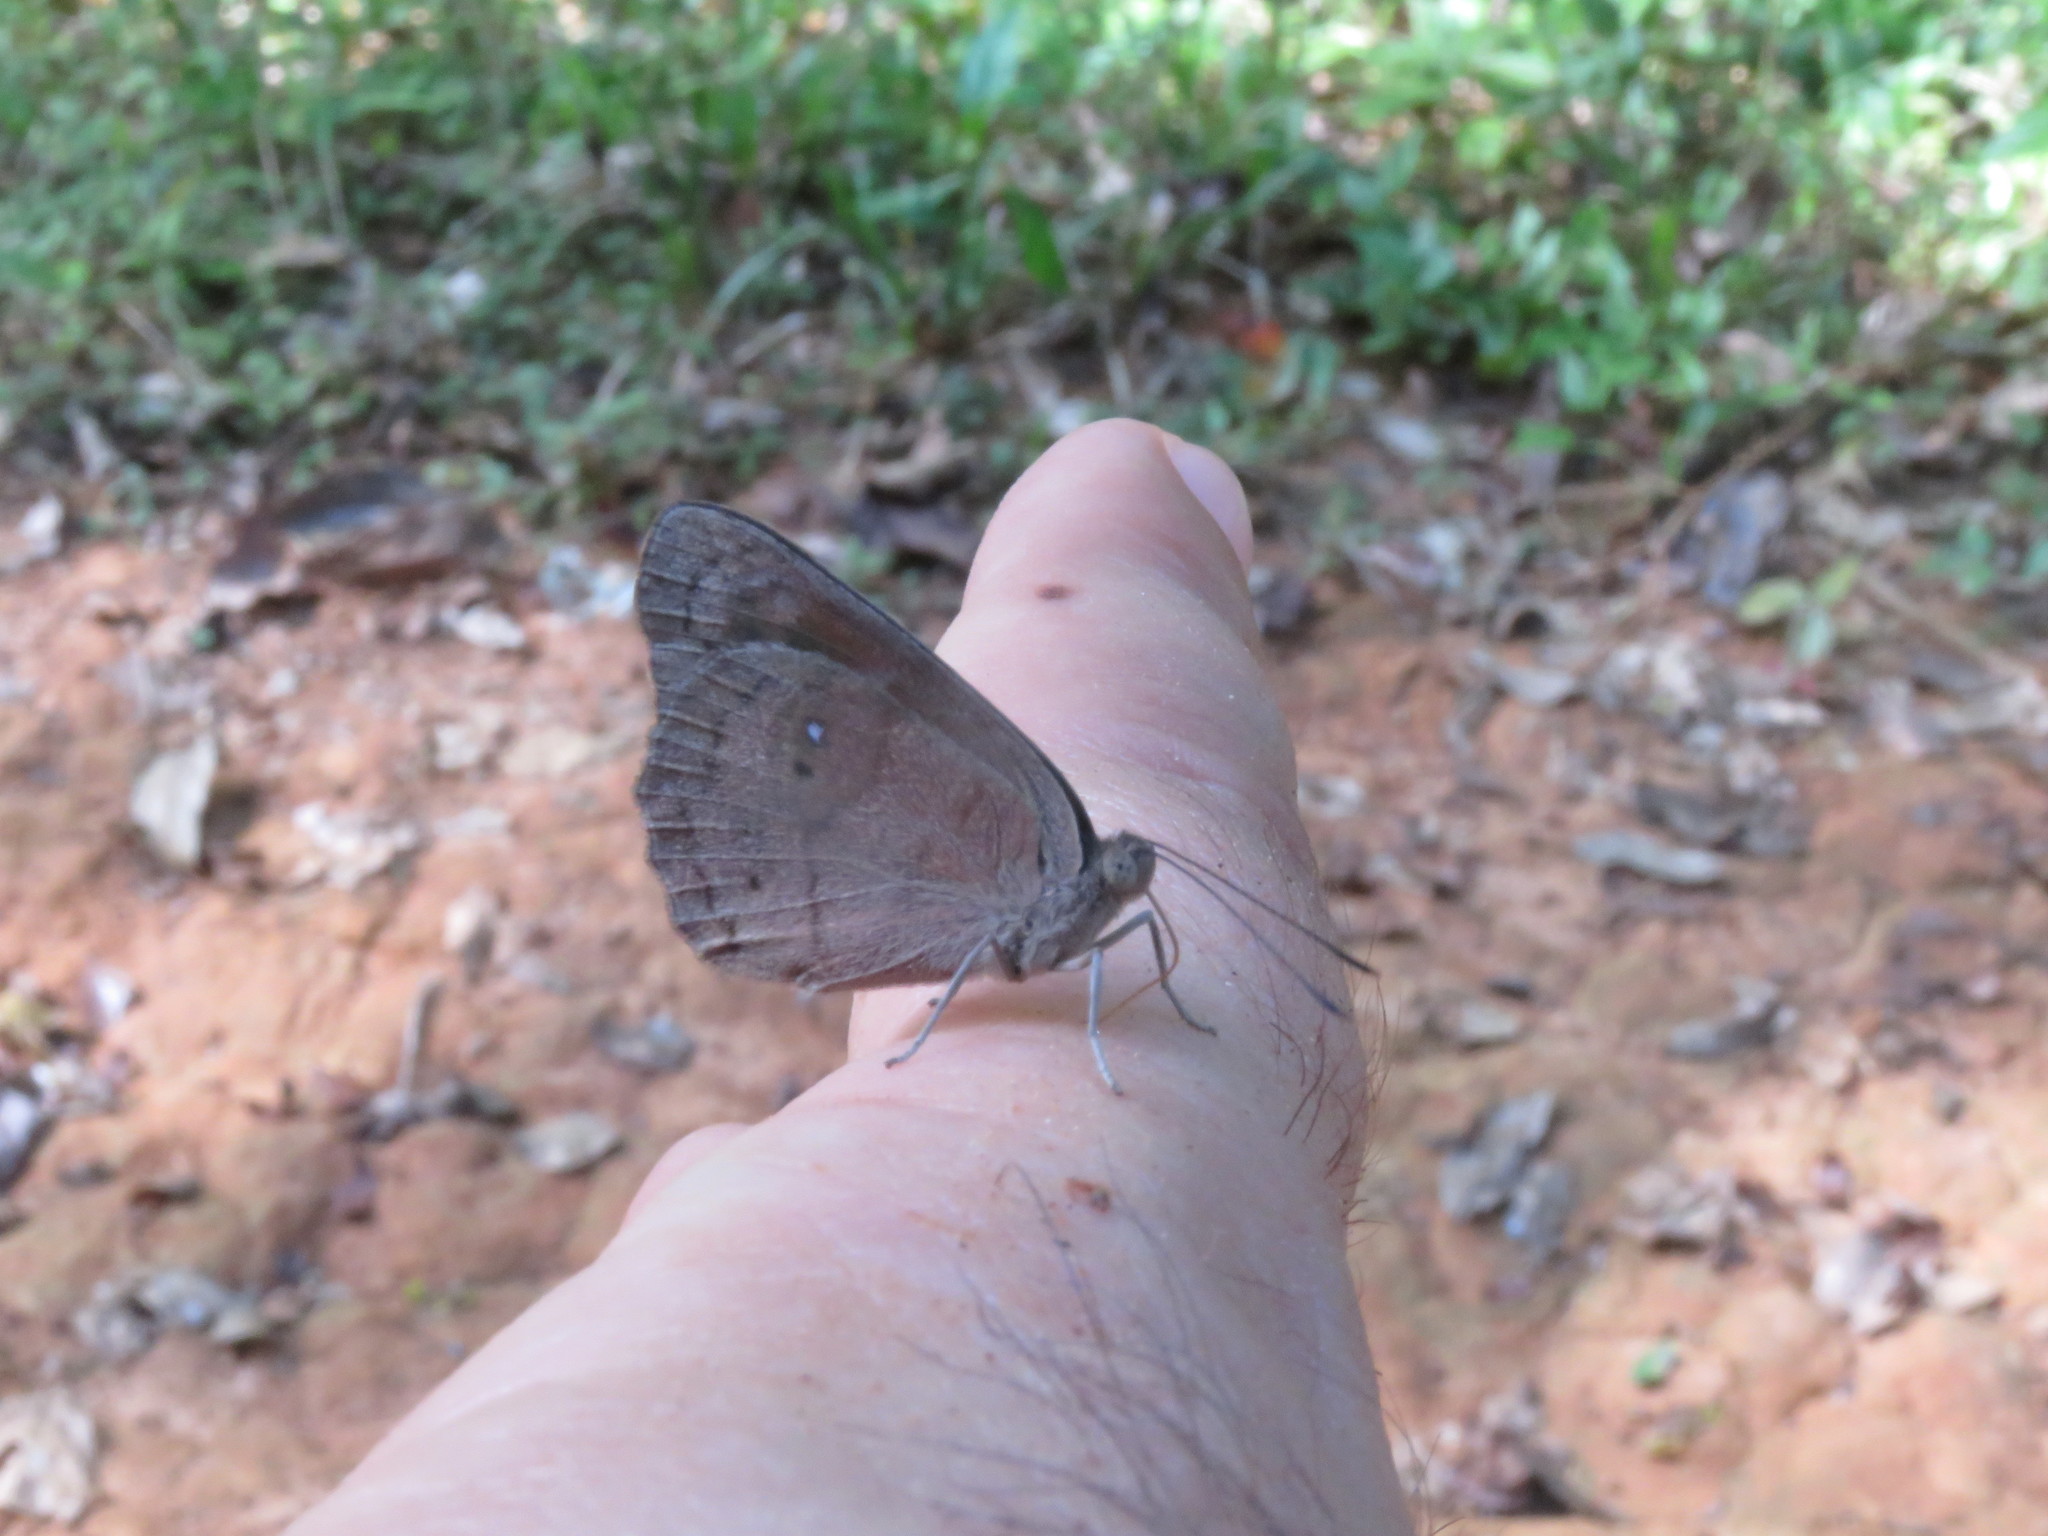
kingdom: Animalia
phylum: Arthropoda
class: Insecta
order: Lepidoptera
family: Nymphalidae
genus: Eunica
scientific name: Eunica pusilla
